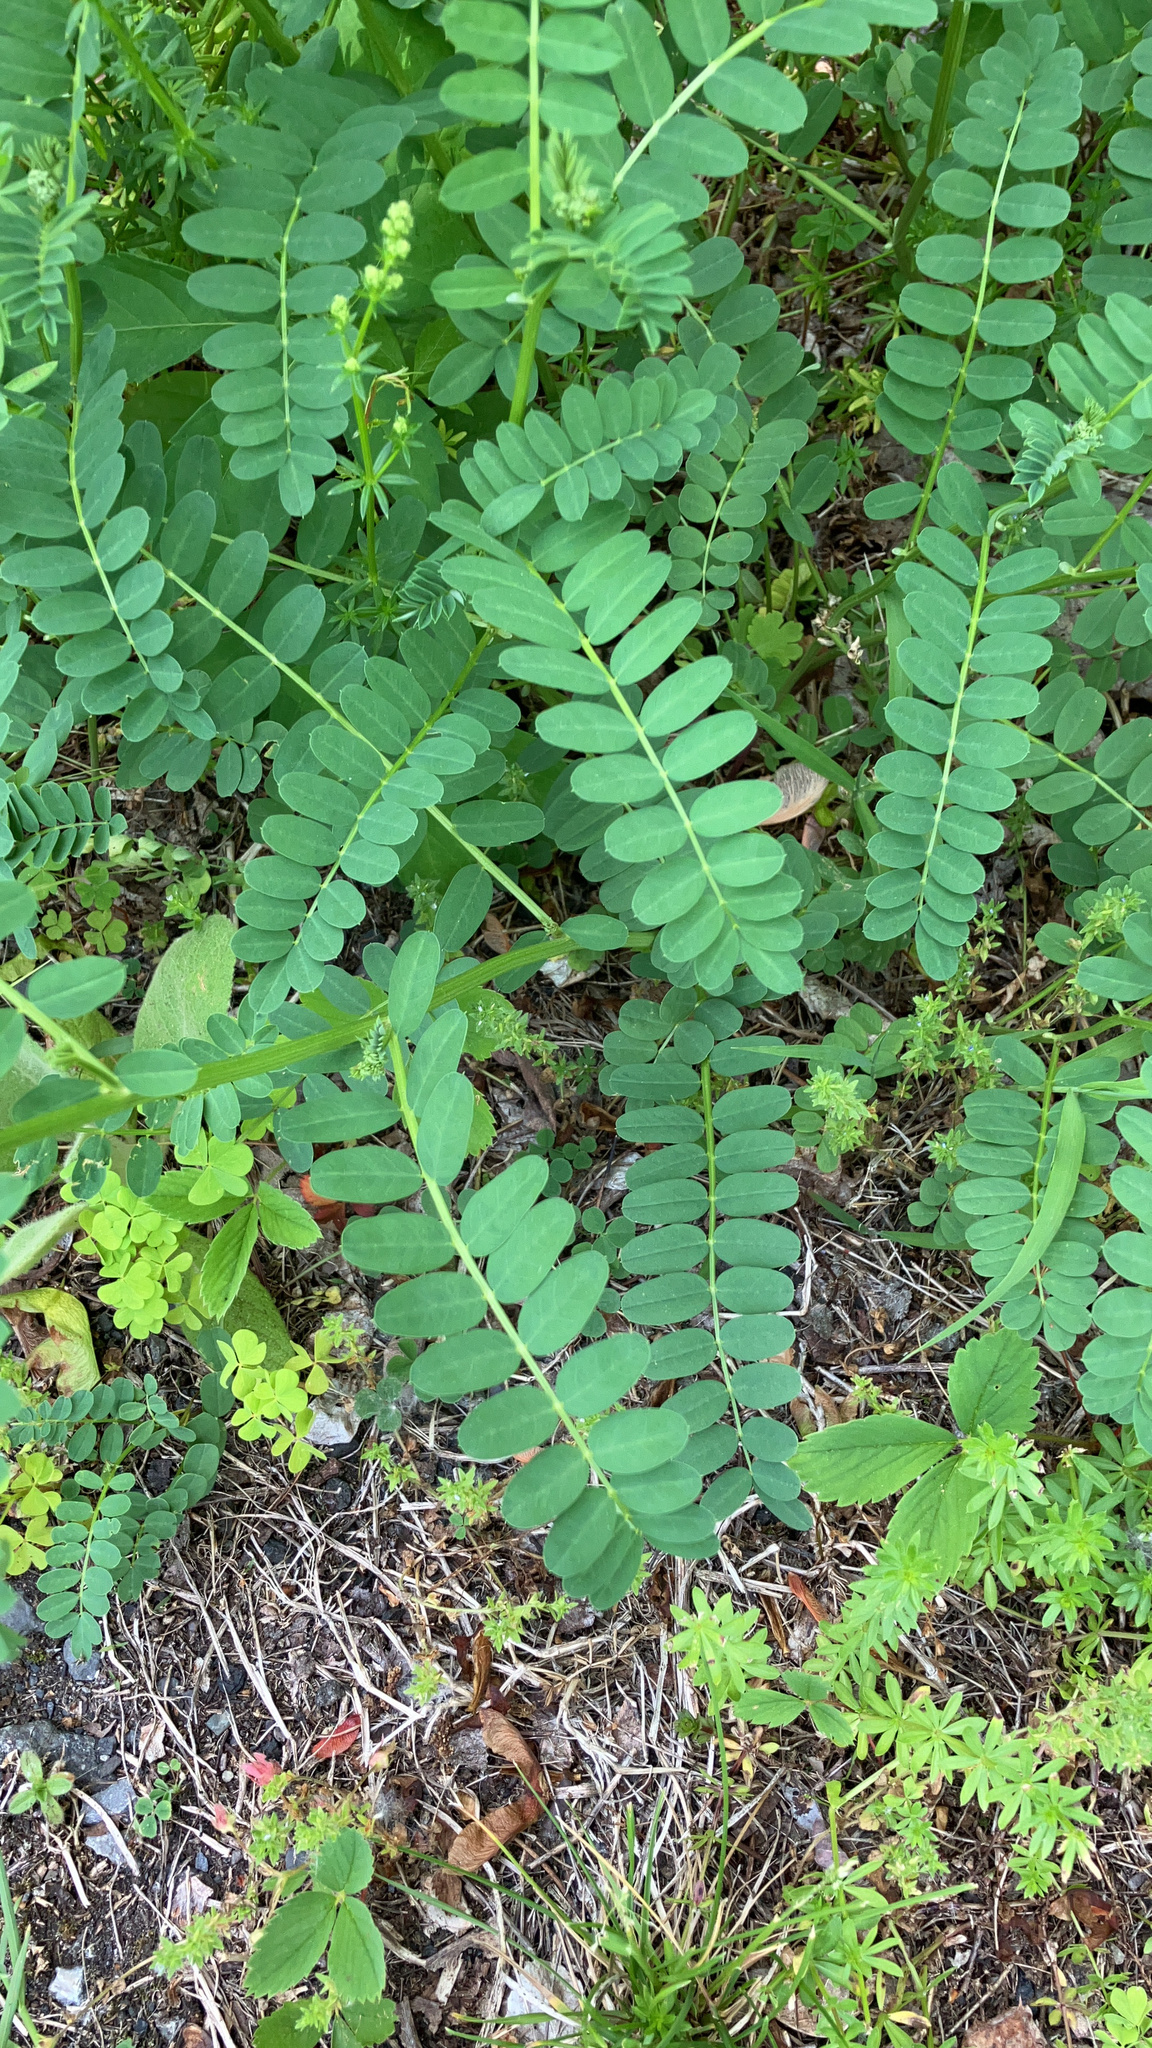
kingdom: Plantae
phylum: Tracheophyta
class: Magnoliopsida
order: Fabales
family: Fabaceae
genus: Coronilla
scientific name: Coronilla varia
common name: Crownvetch
